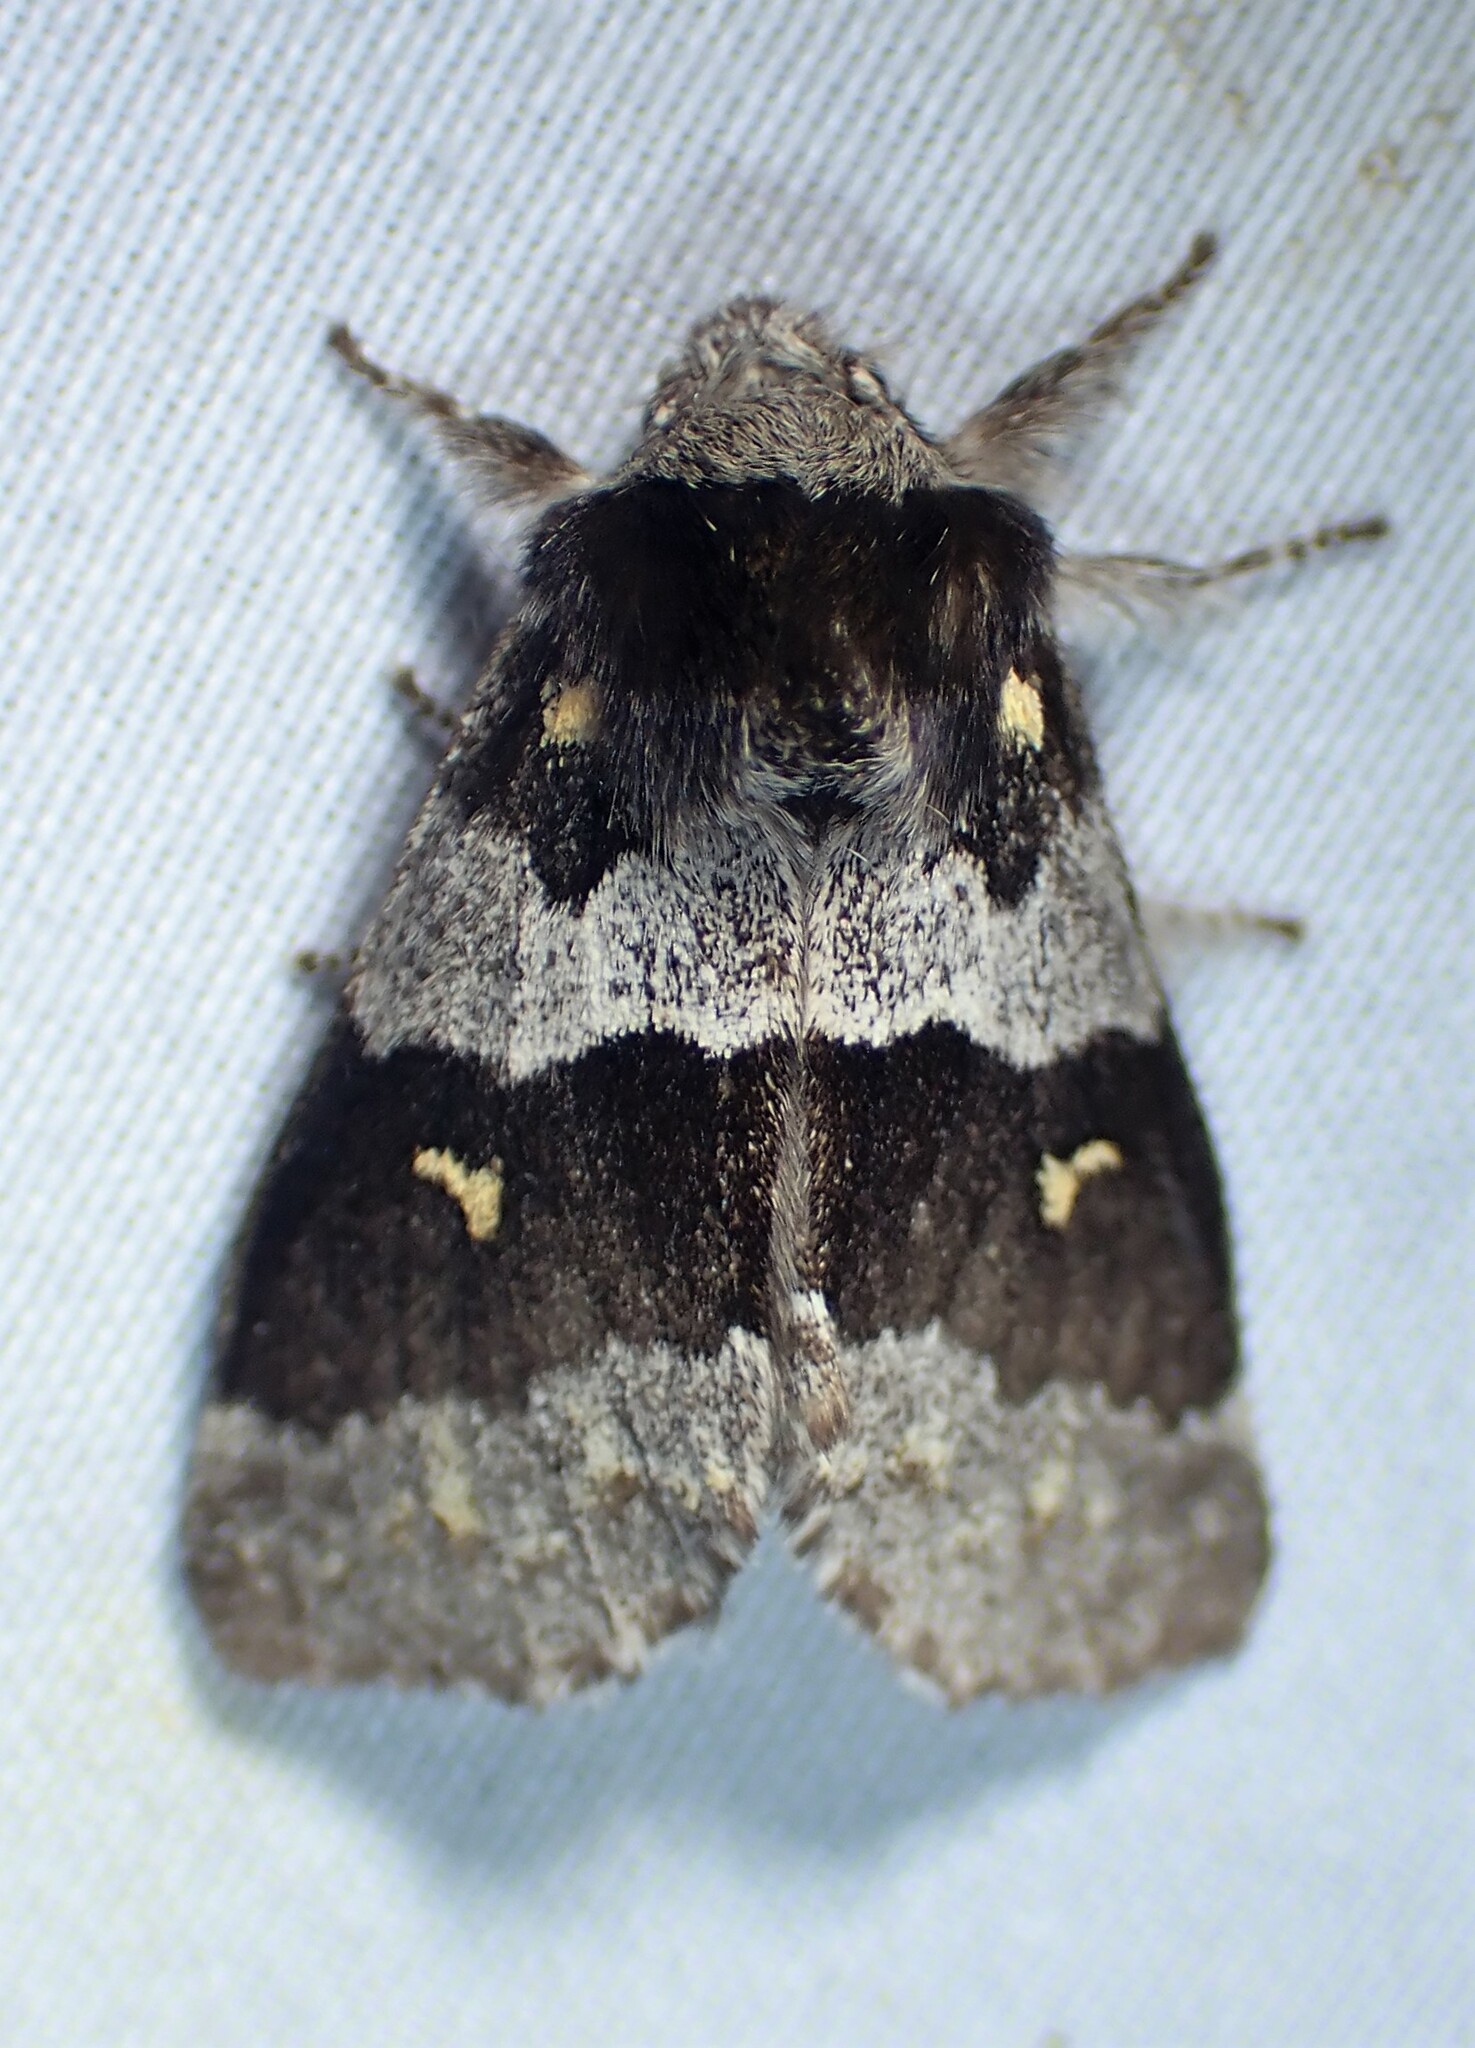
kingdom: Animalia
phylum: Arthropoda
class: Insecta
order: Lepidoptera
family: Notodontidae
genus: Gluphisia
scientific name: Gluphisia avimacula
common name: Four-spotted gluphisia moth
